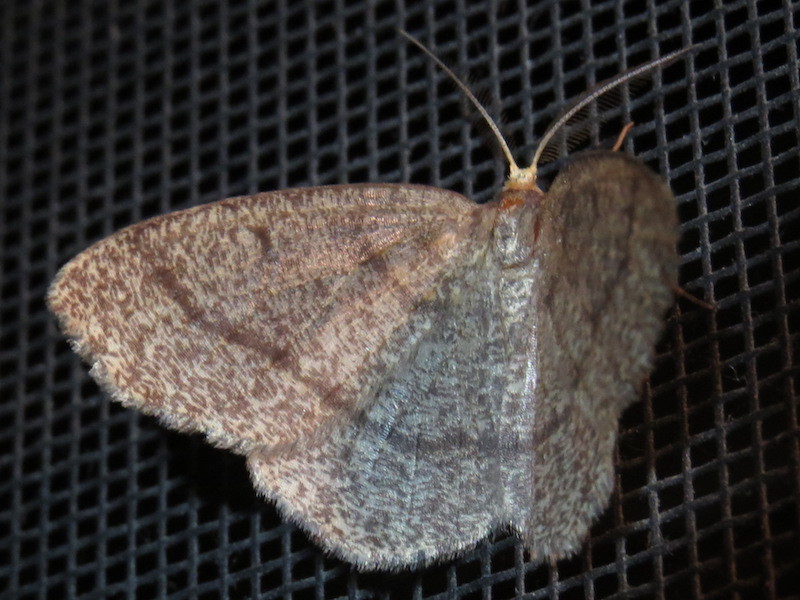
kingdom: Animalia
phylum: Arthropoda
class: Insecta
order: Lepidoptera
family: Geometridae
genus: Lambdina
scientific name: Lambdina fervidaria
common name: Curve-lined looper moth
